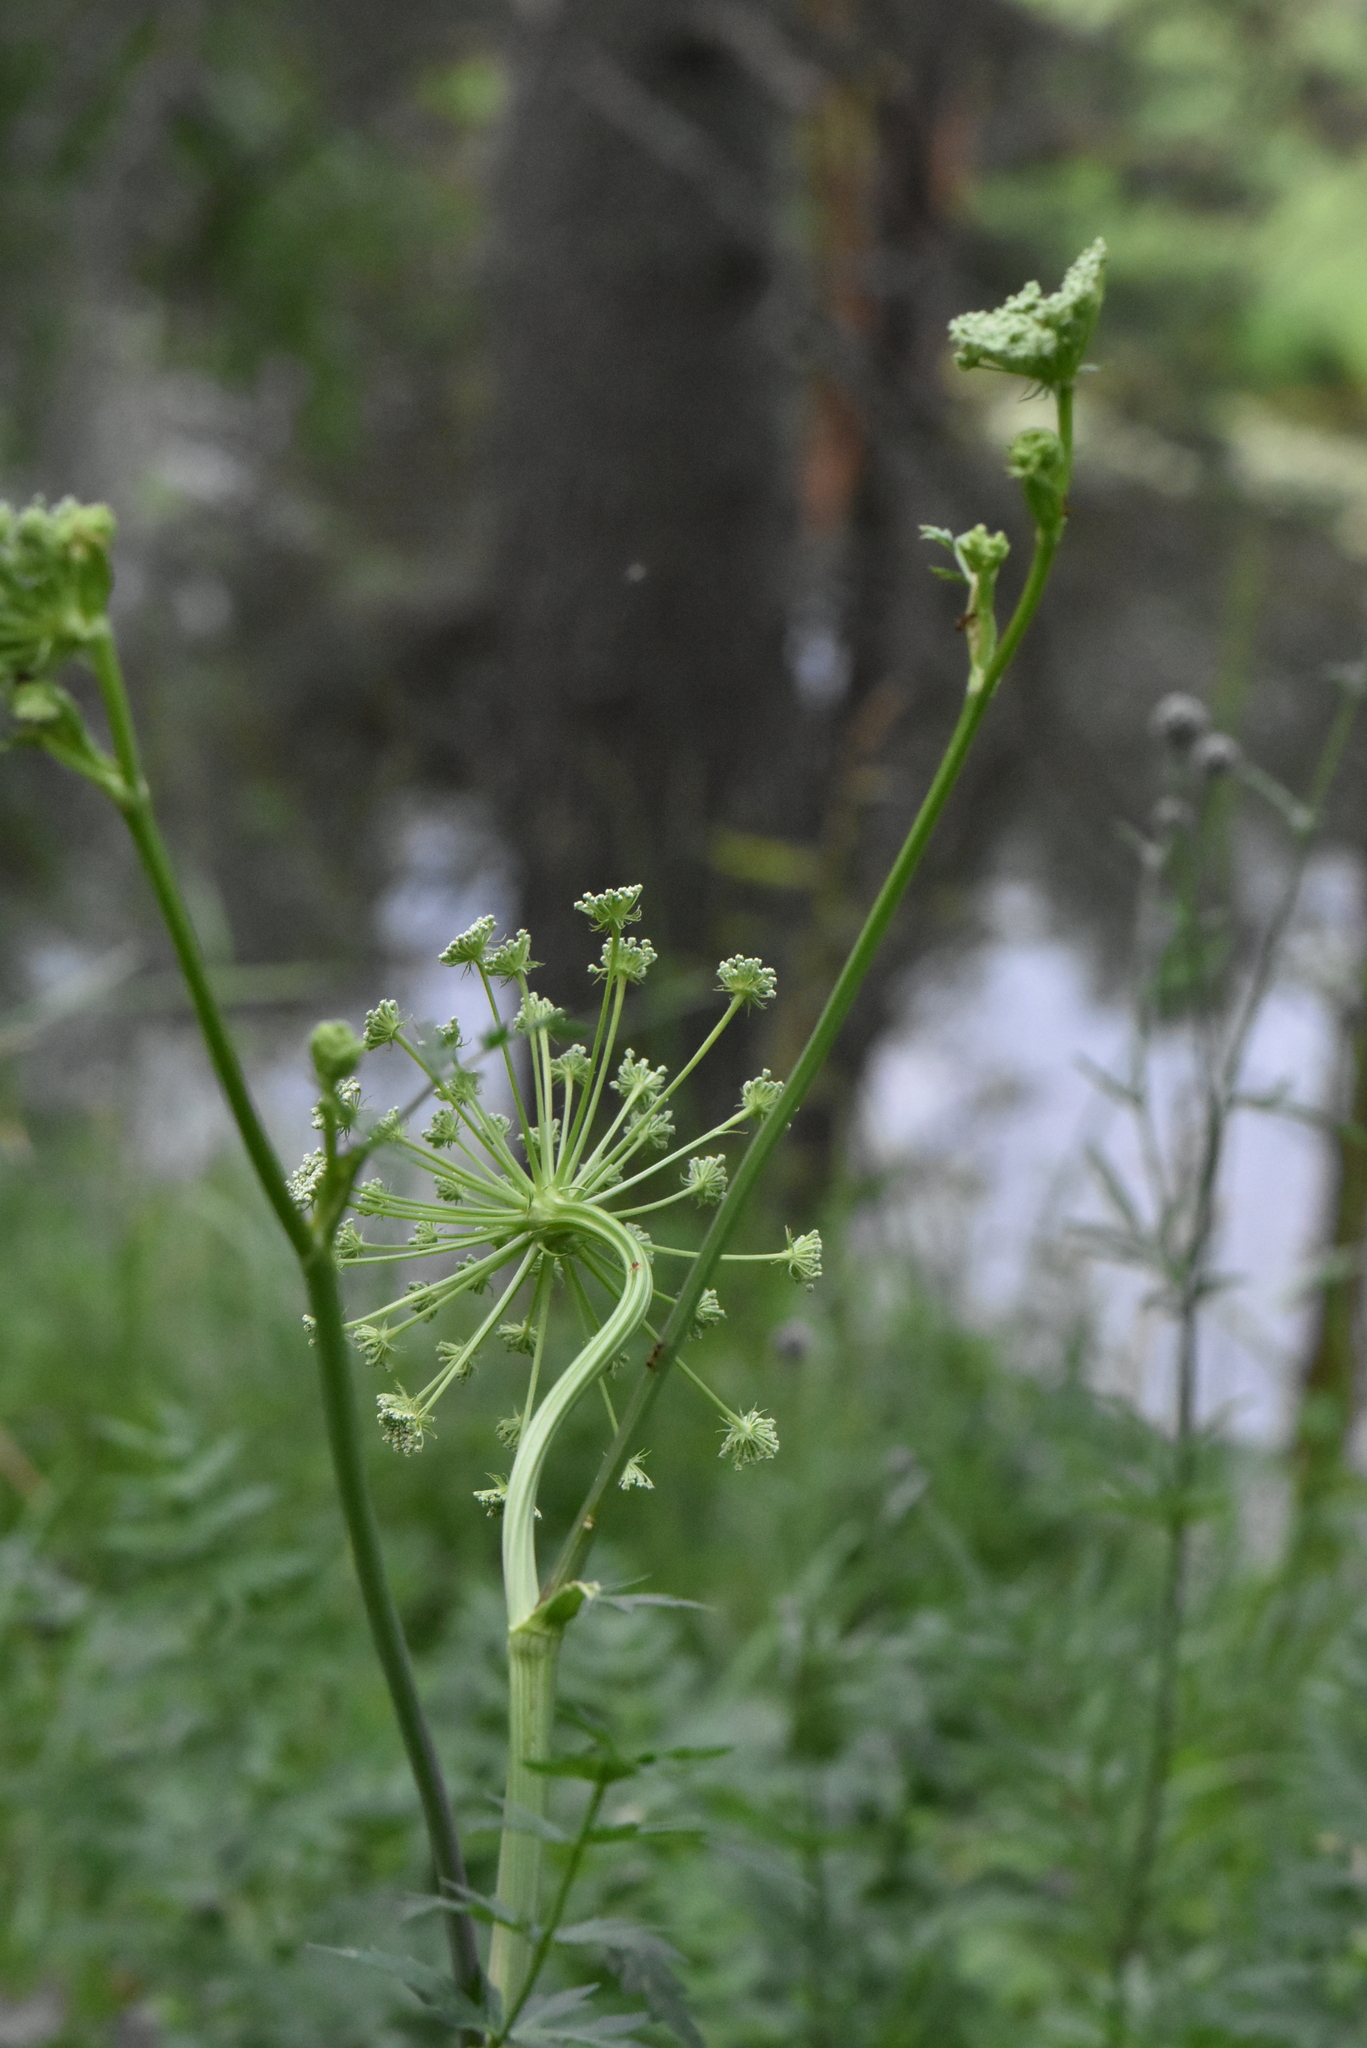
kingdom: Plantae
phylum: Tracheophyta
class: Magnoliopsida
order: Apiales
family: Apiaceae
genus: Seseli
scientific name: Seseli libanotis
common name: Mooncarrot
